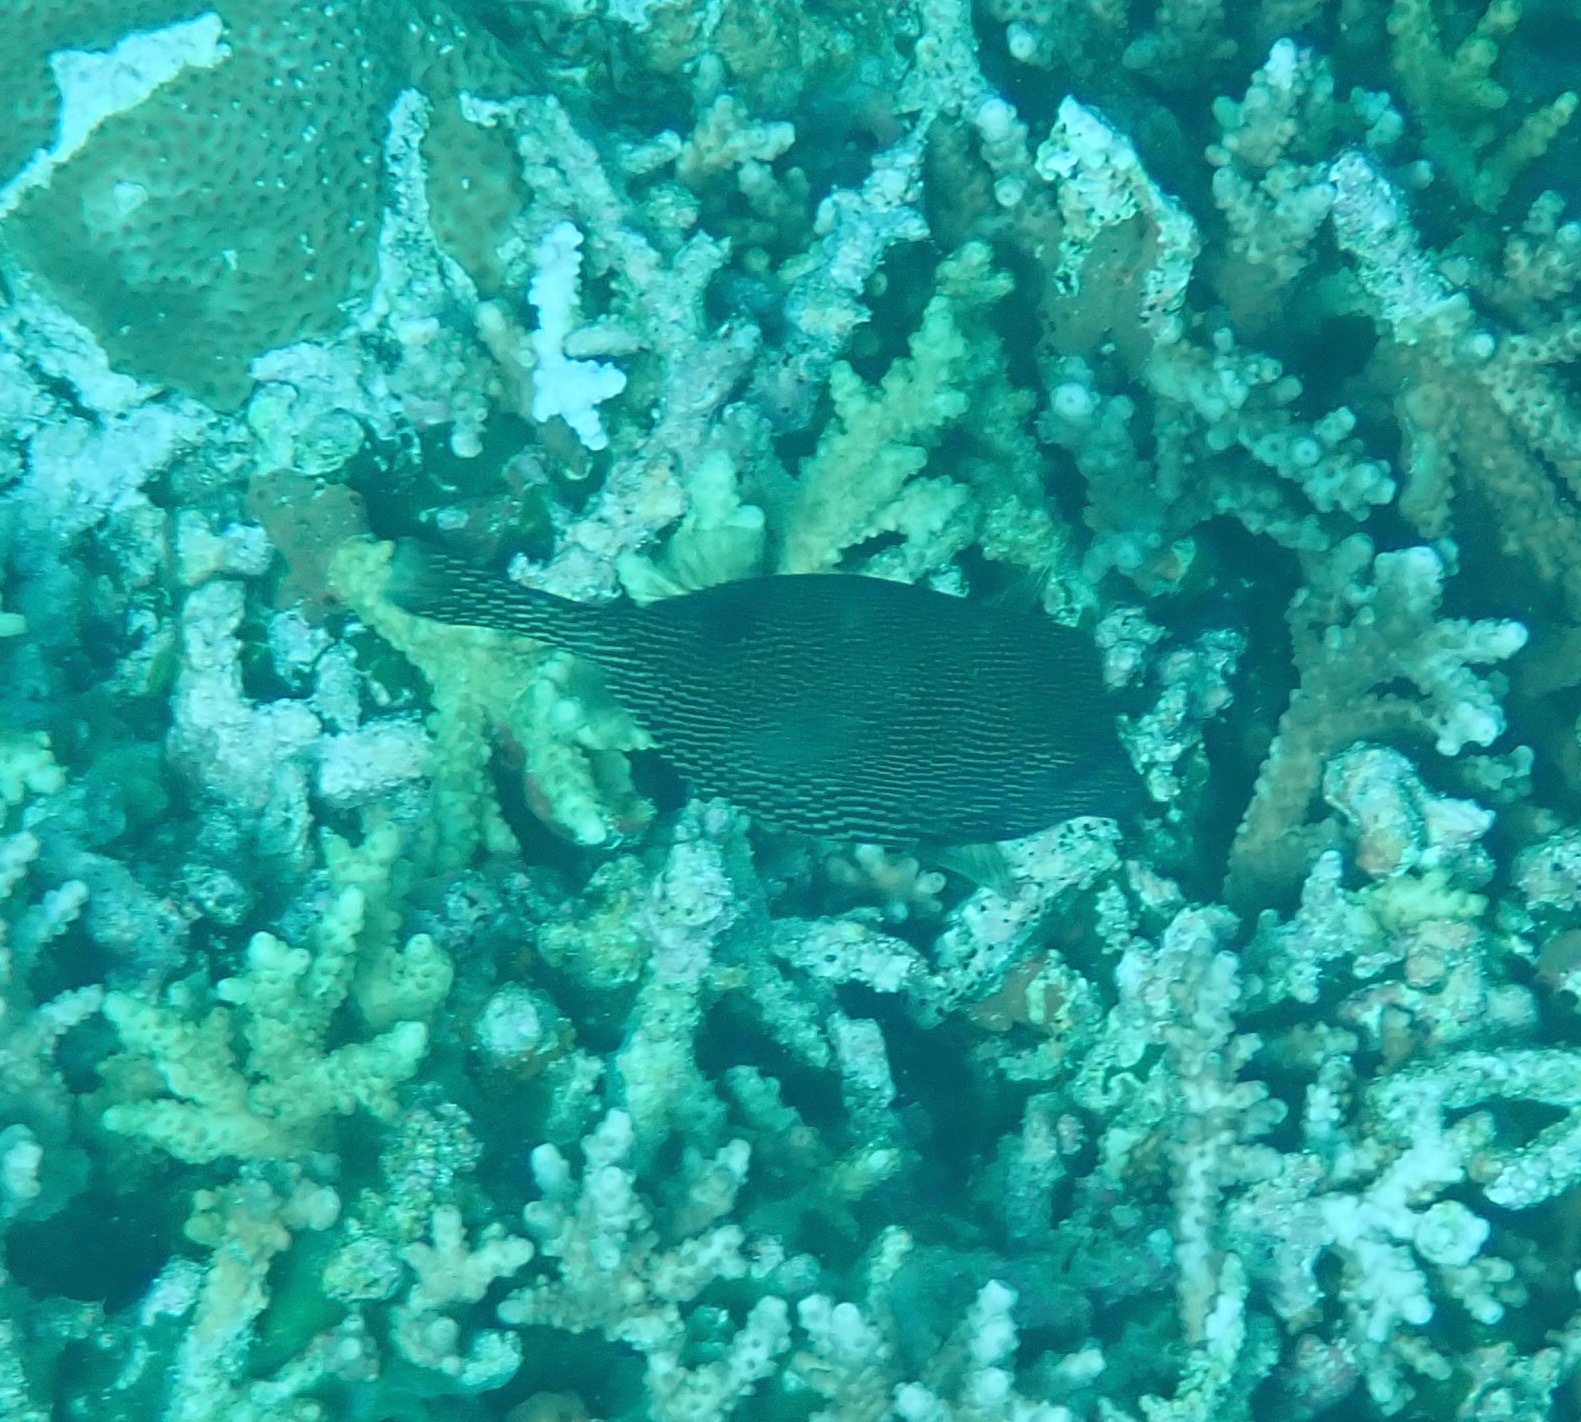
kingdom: Animalia
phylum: Chordata
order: Tetraodontiformes
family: Ostraciidae
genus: Ostracion
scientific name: Ostracion meleagris
